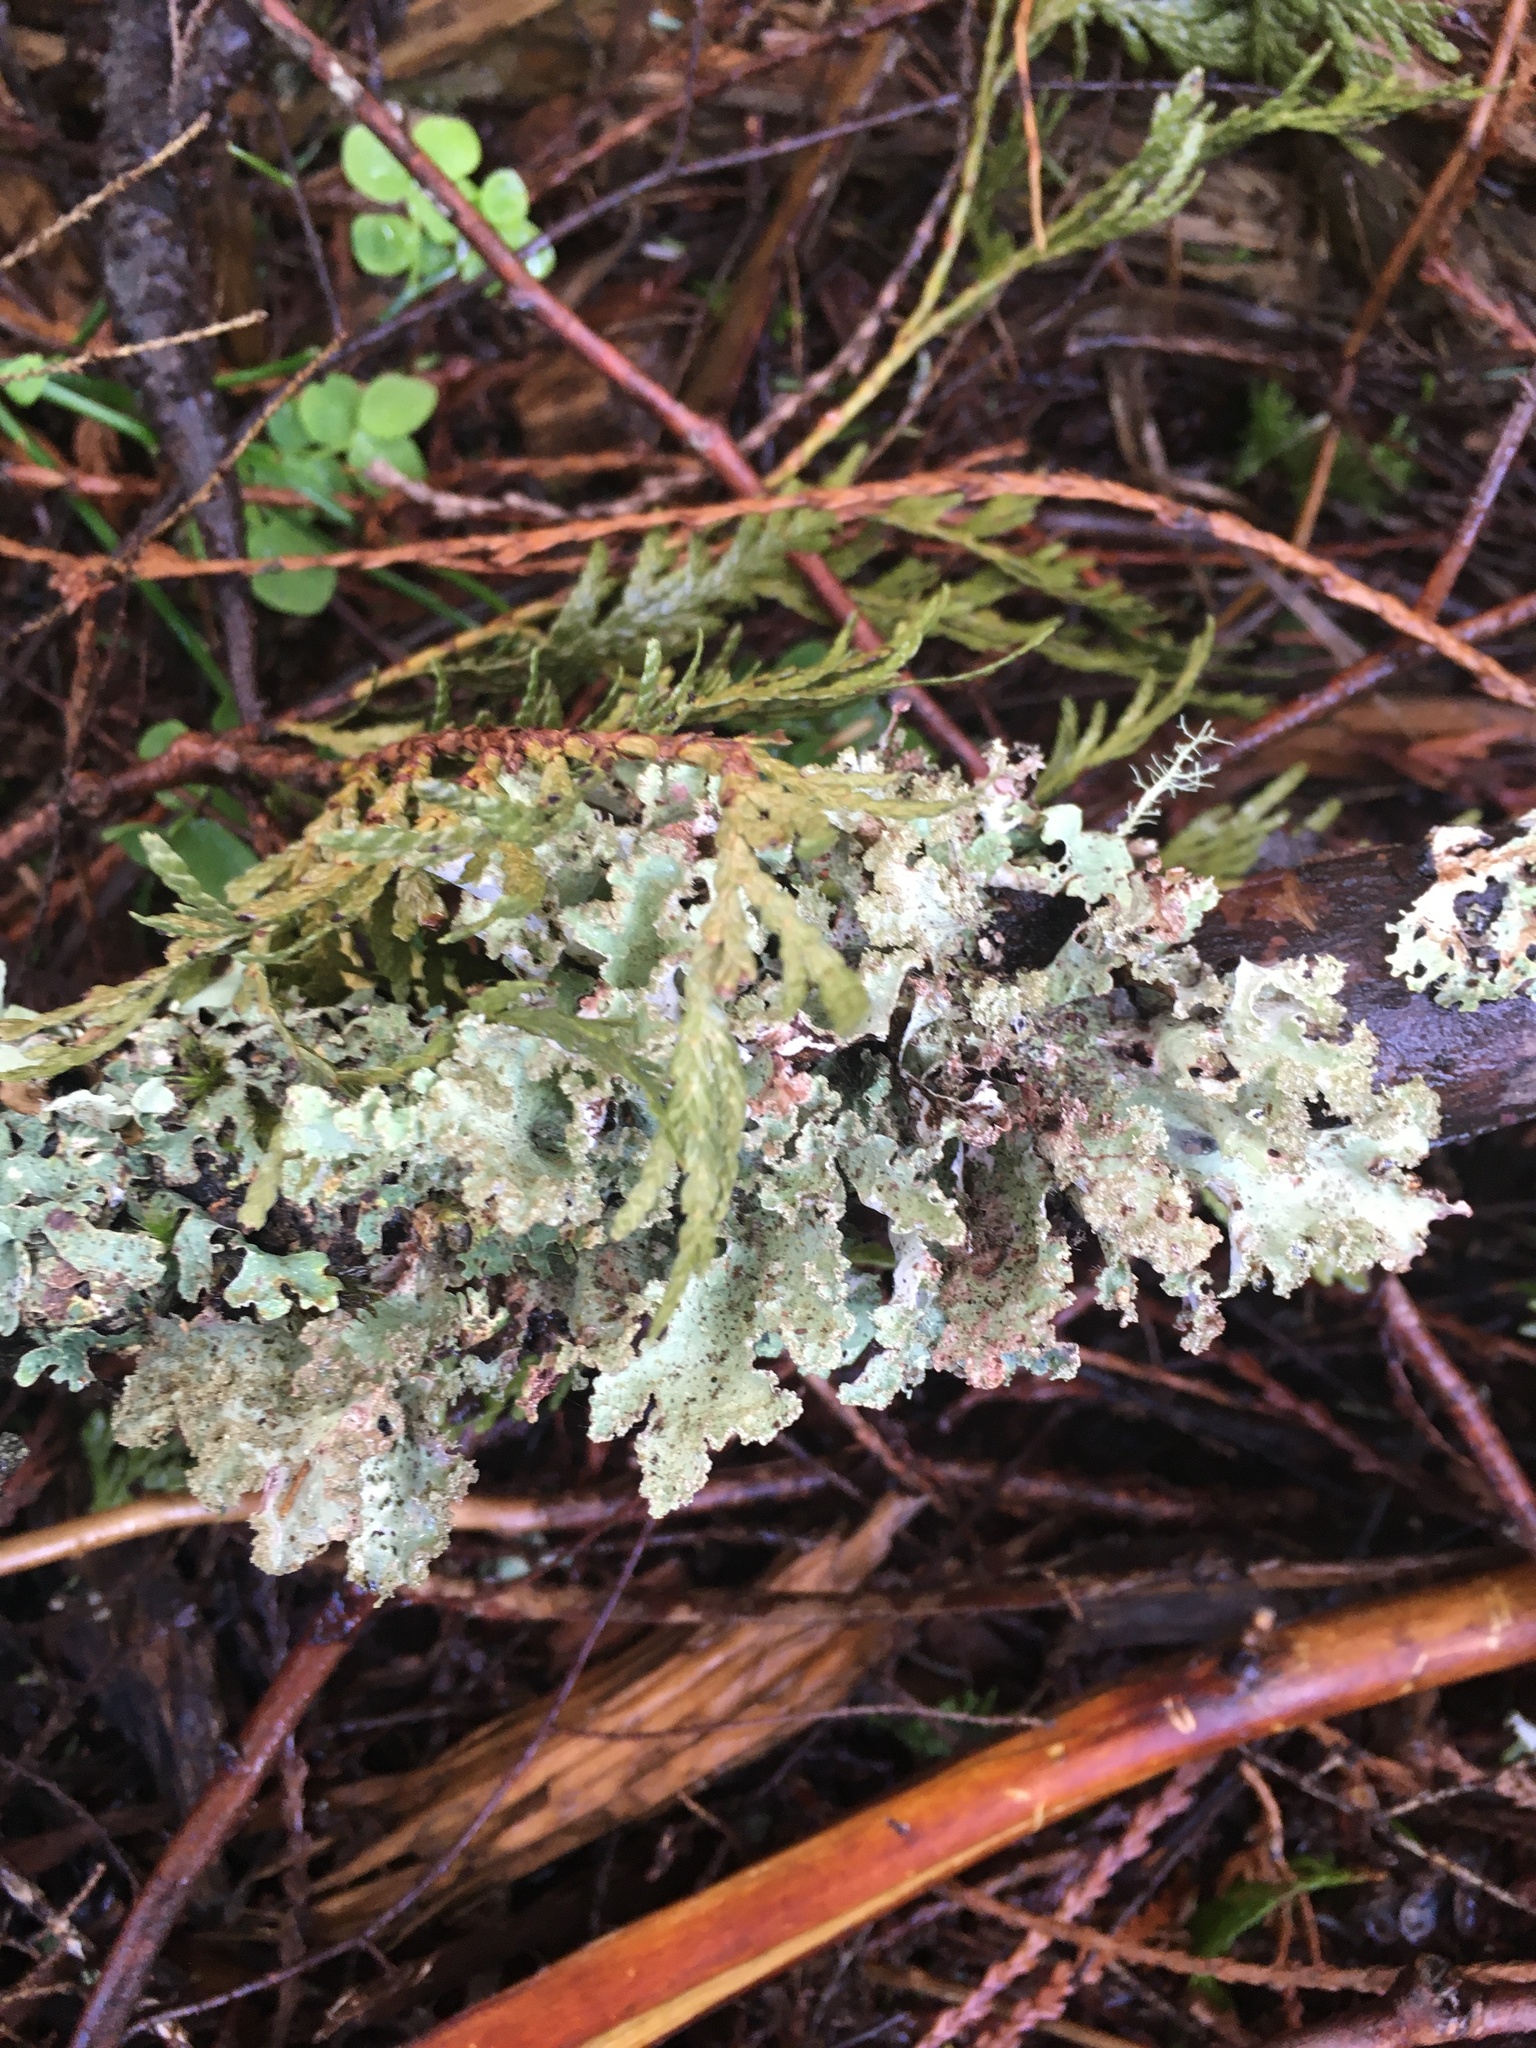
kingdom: Fungi
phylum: Ascomycota
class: Lecanoromycetes
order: Lecanorales
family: Parmeliaceae
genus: Platismatia
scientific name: Platismatia glauca
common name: Varied rag lichen
